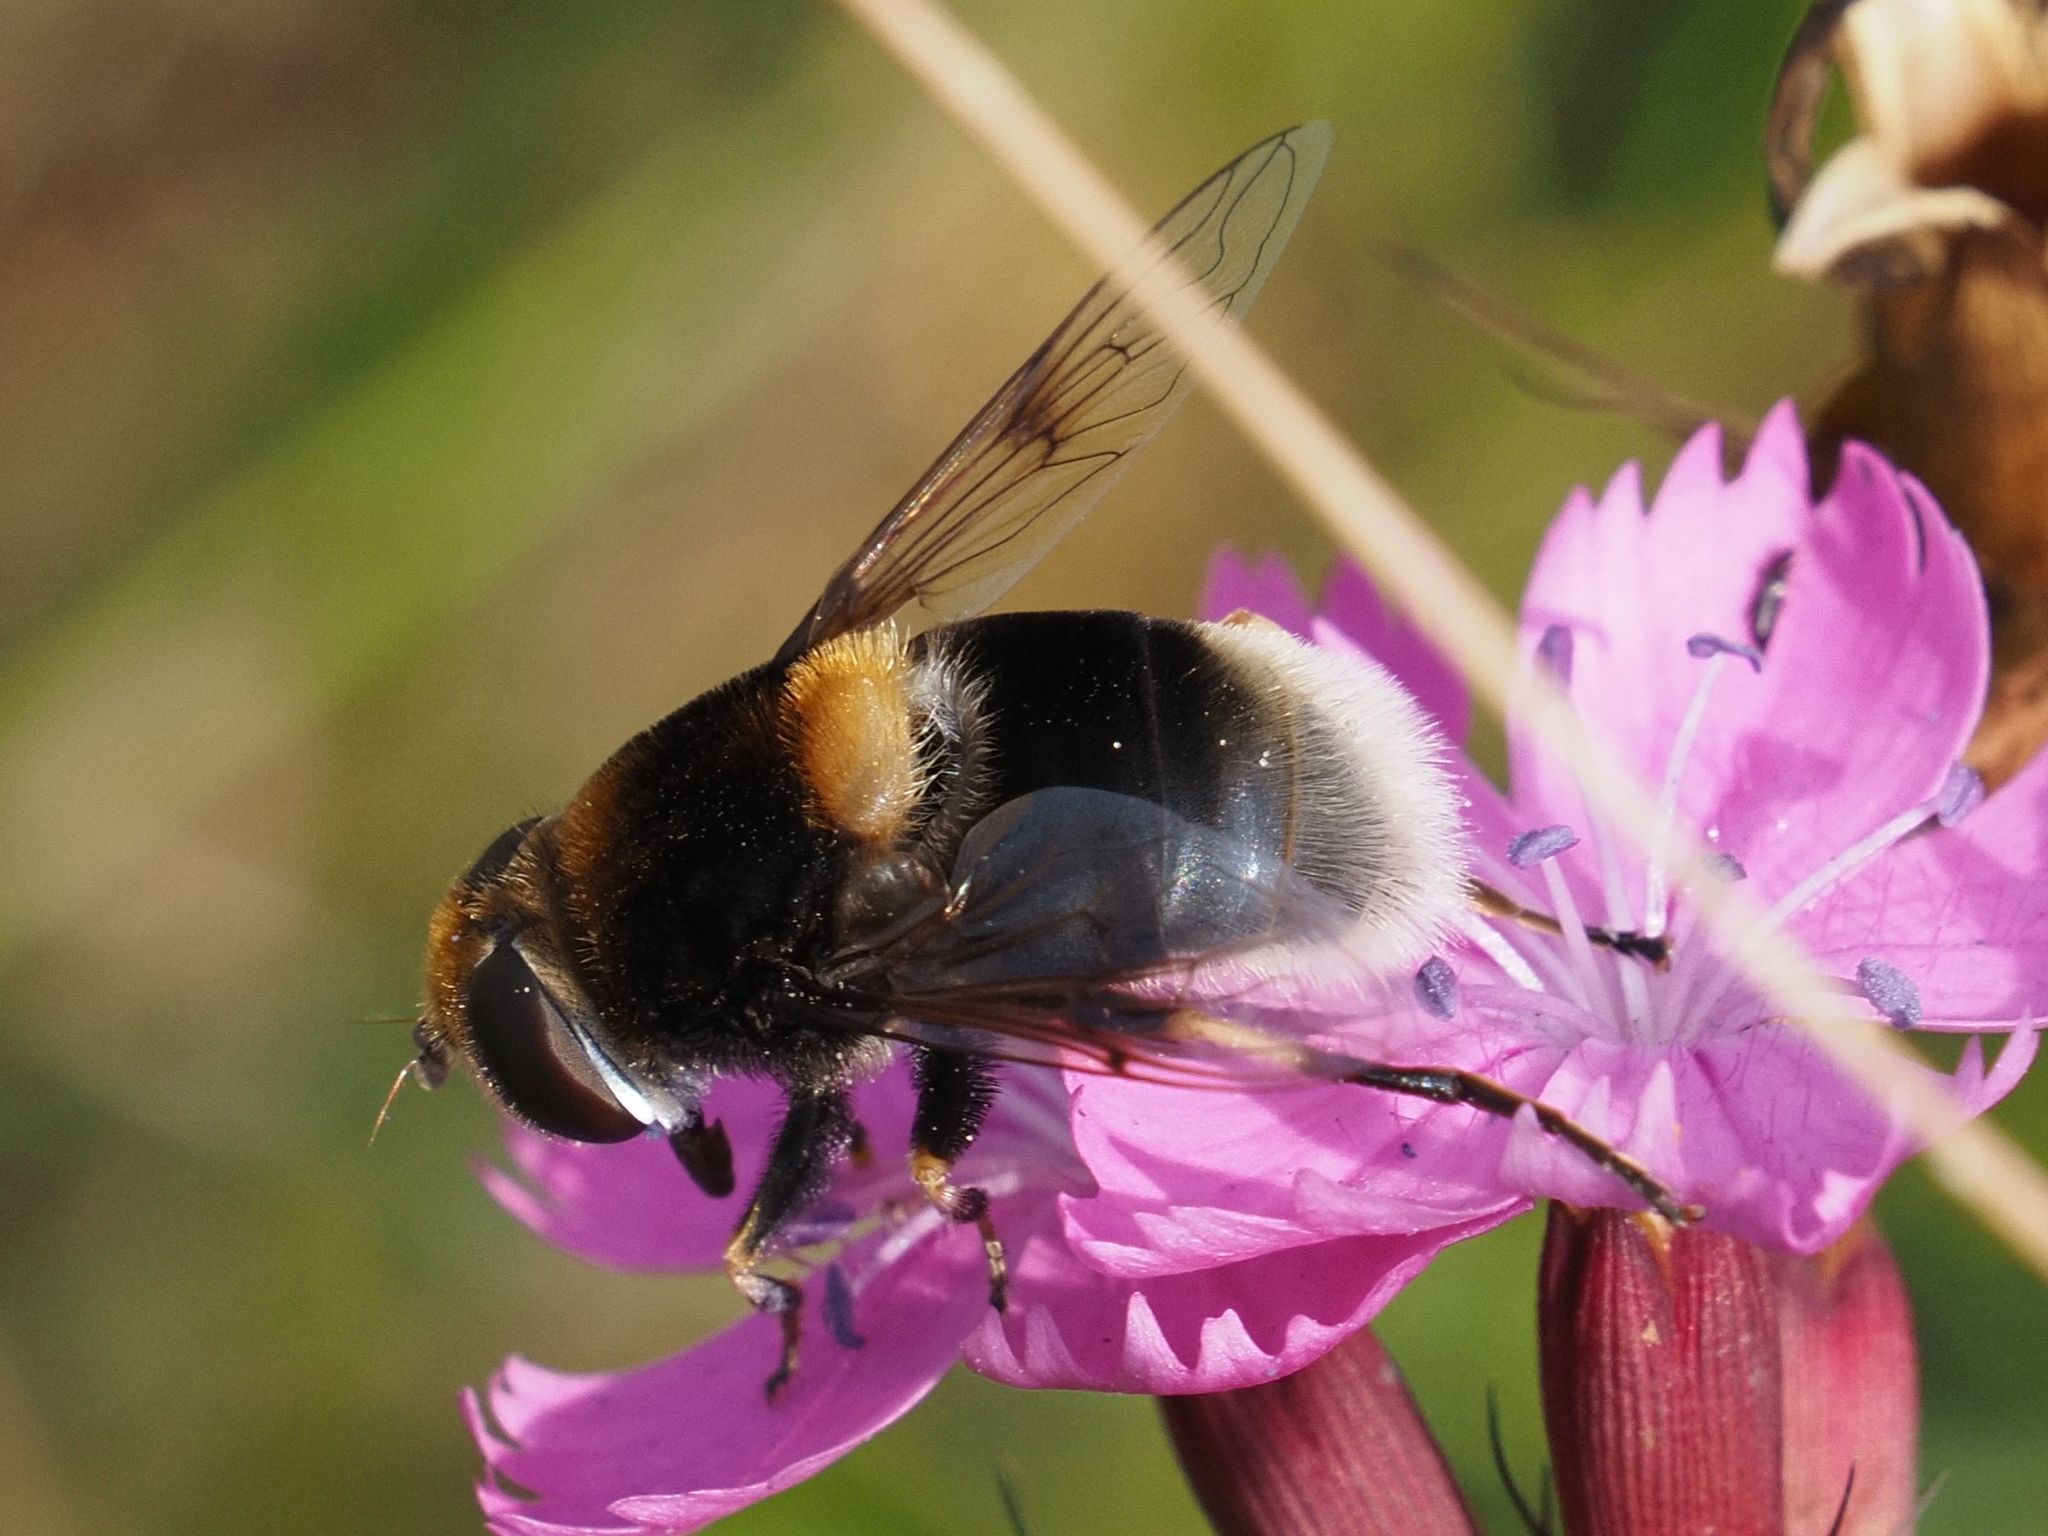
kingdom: Animalia
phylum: Arthropoda
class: Insecta
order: Diptera
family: Syrphidae
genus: Eristalis
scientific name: Eristalis intricaria
